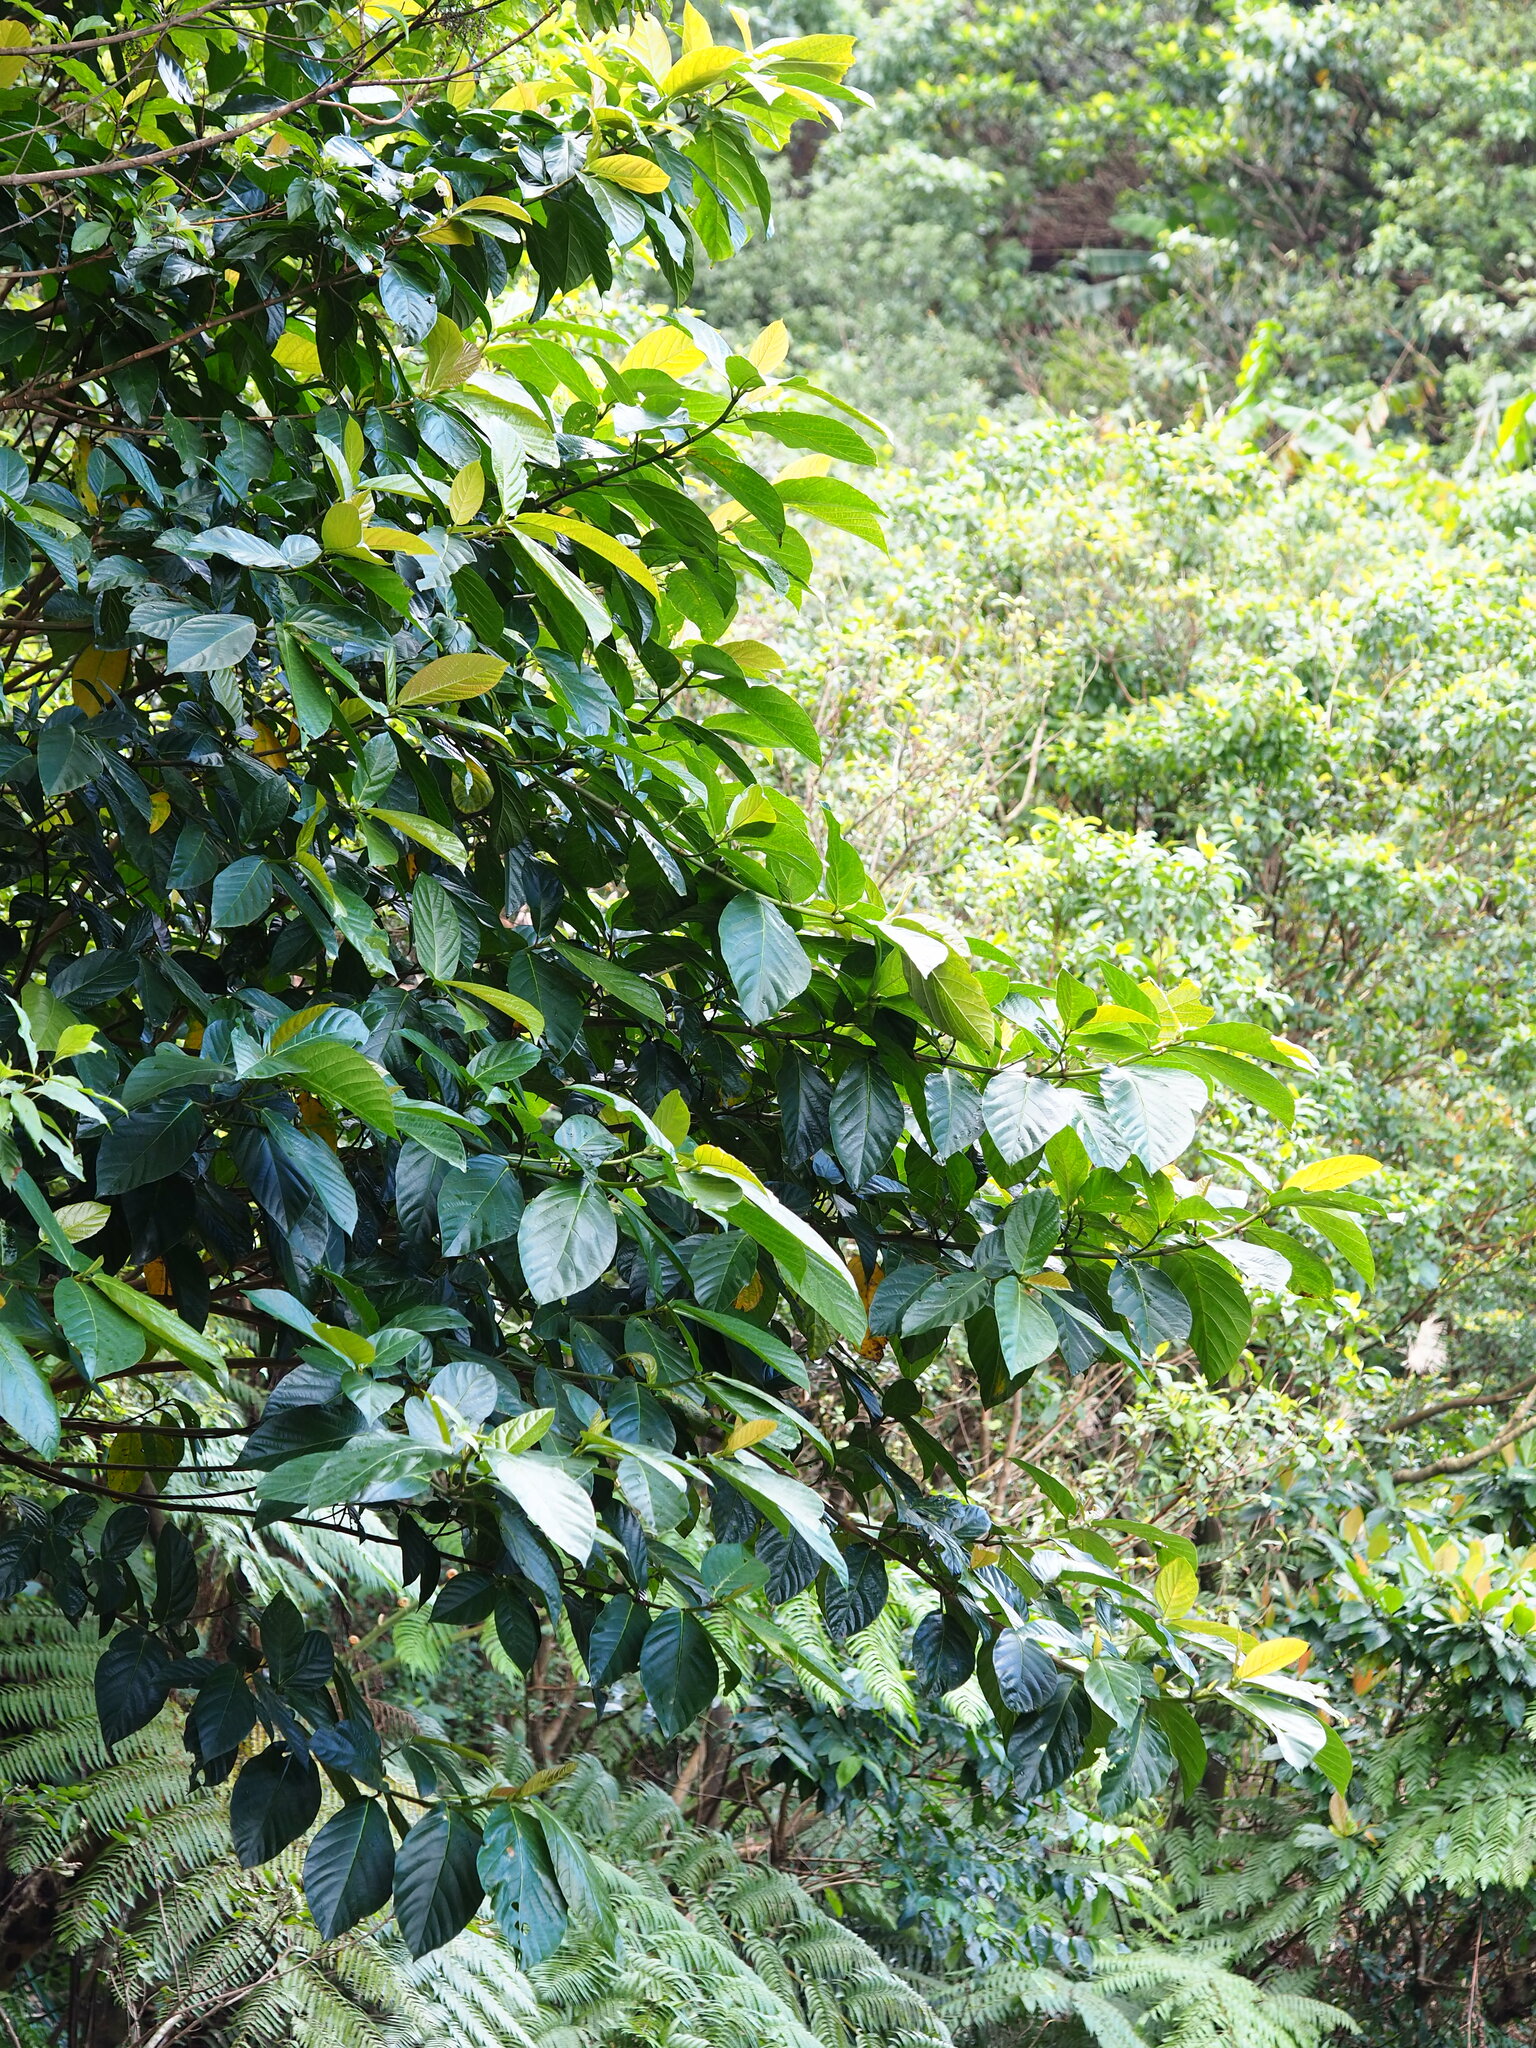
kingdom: Plantae
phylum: Tracheophyta
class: Magnoliopsida
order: Rosales
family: Moraceae
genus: Ficus
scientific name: Ficus benguetensis
